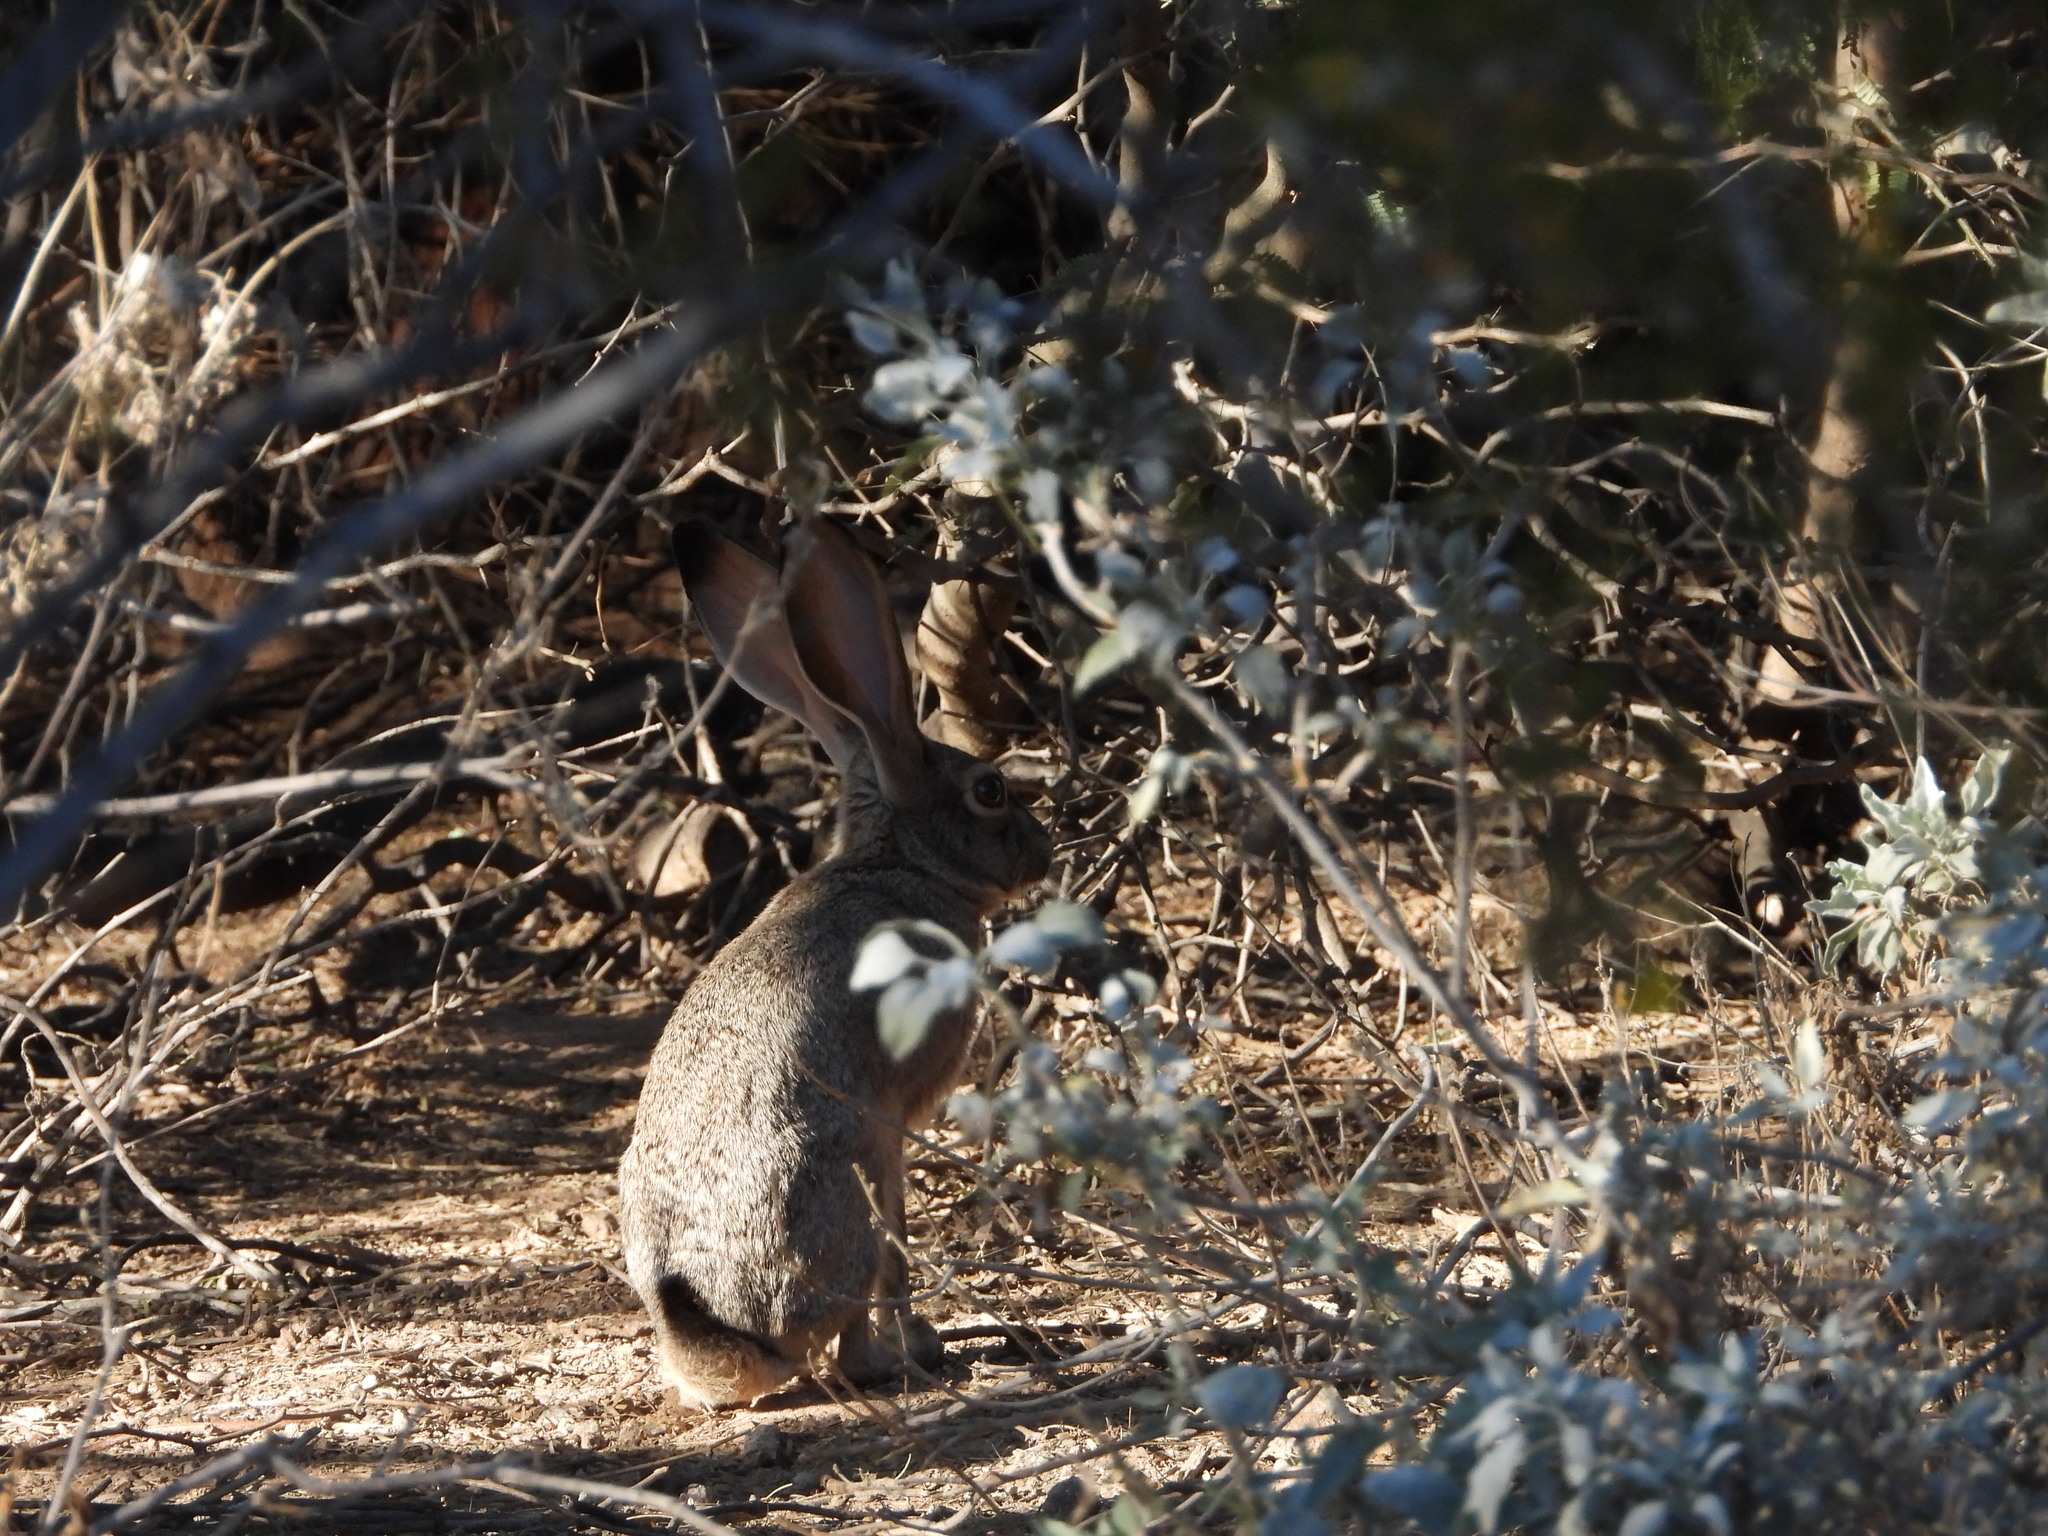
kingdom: Animalia
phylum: Chordata
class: Mammalia
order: Lagomorpha
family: Leporidae
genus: Lepus
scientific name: Lepus californicus
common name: Black-tailed jackrabbit
